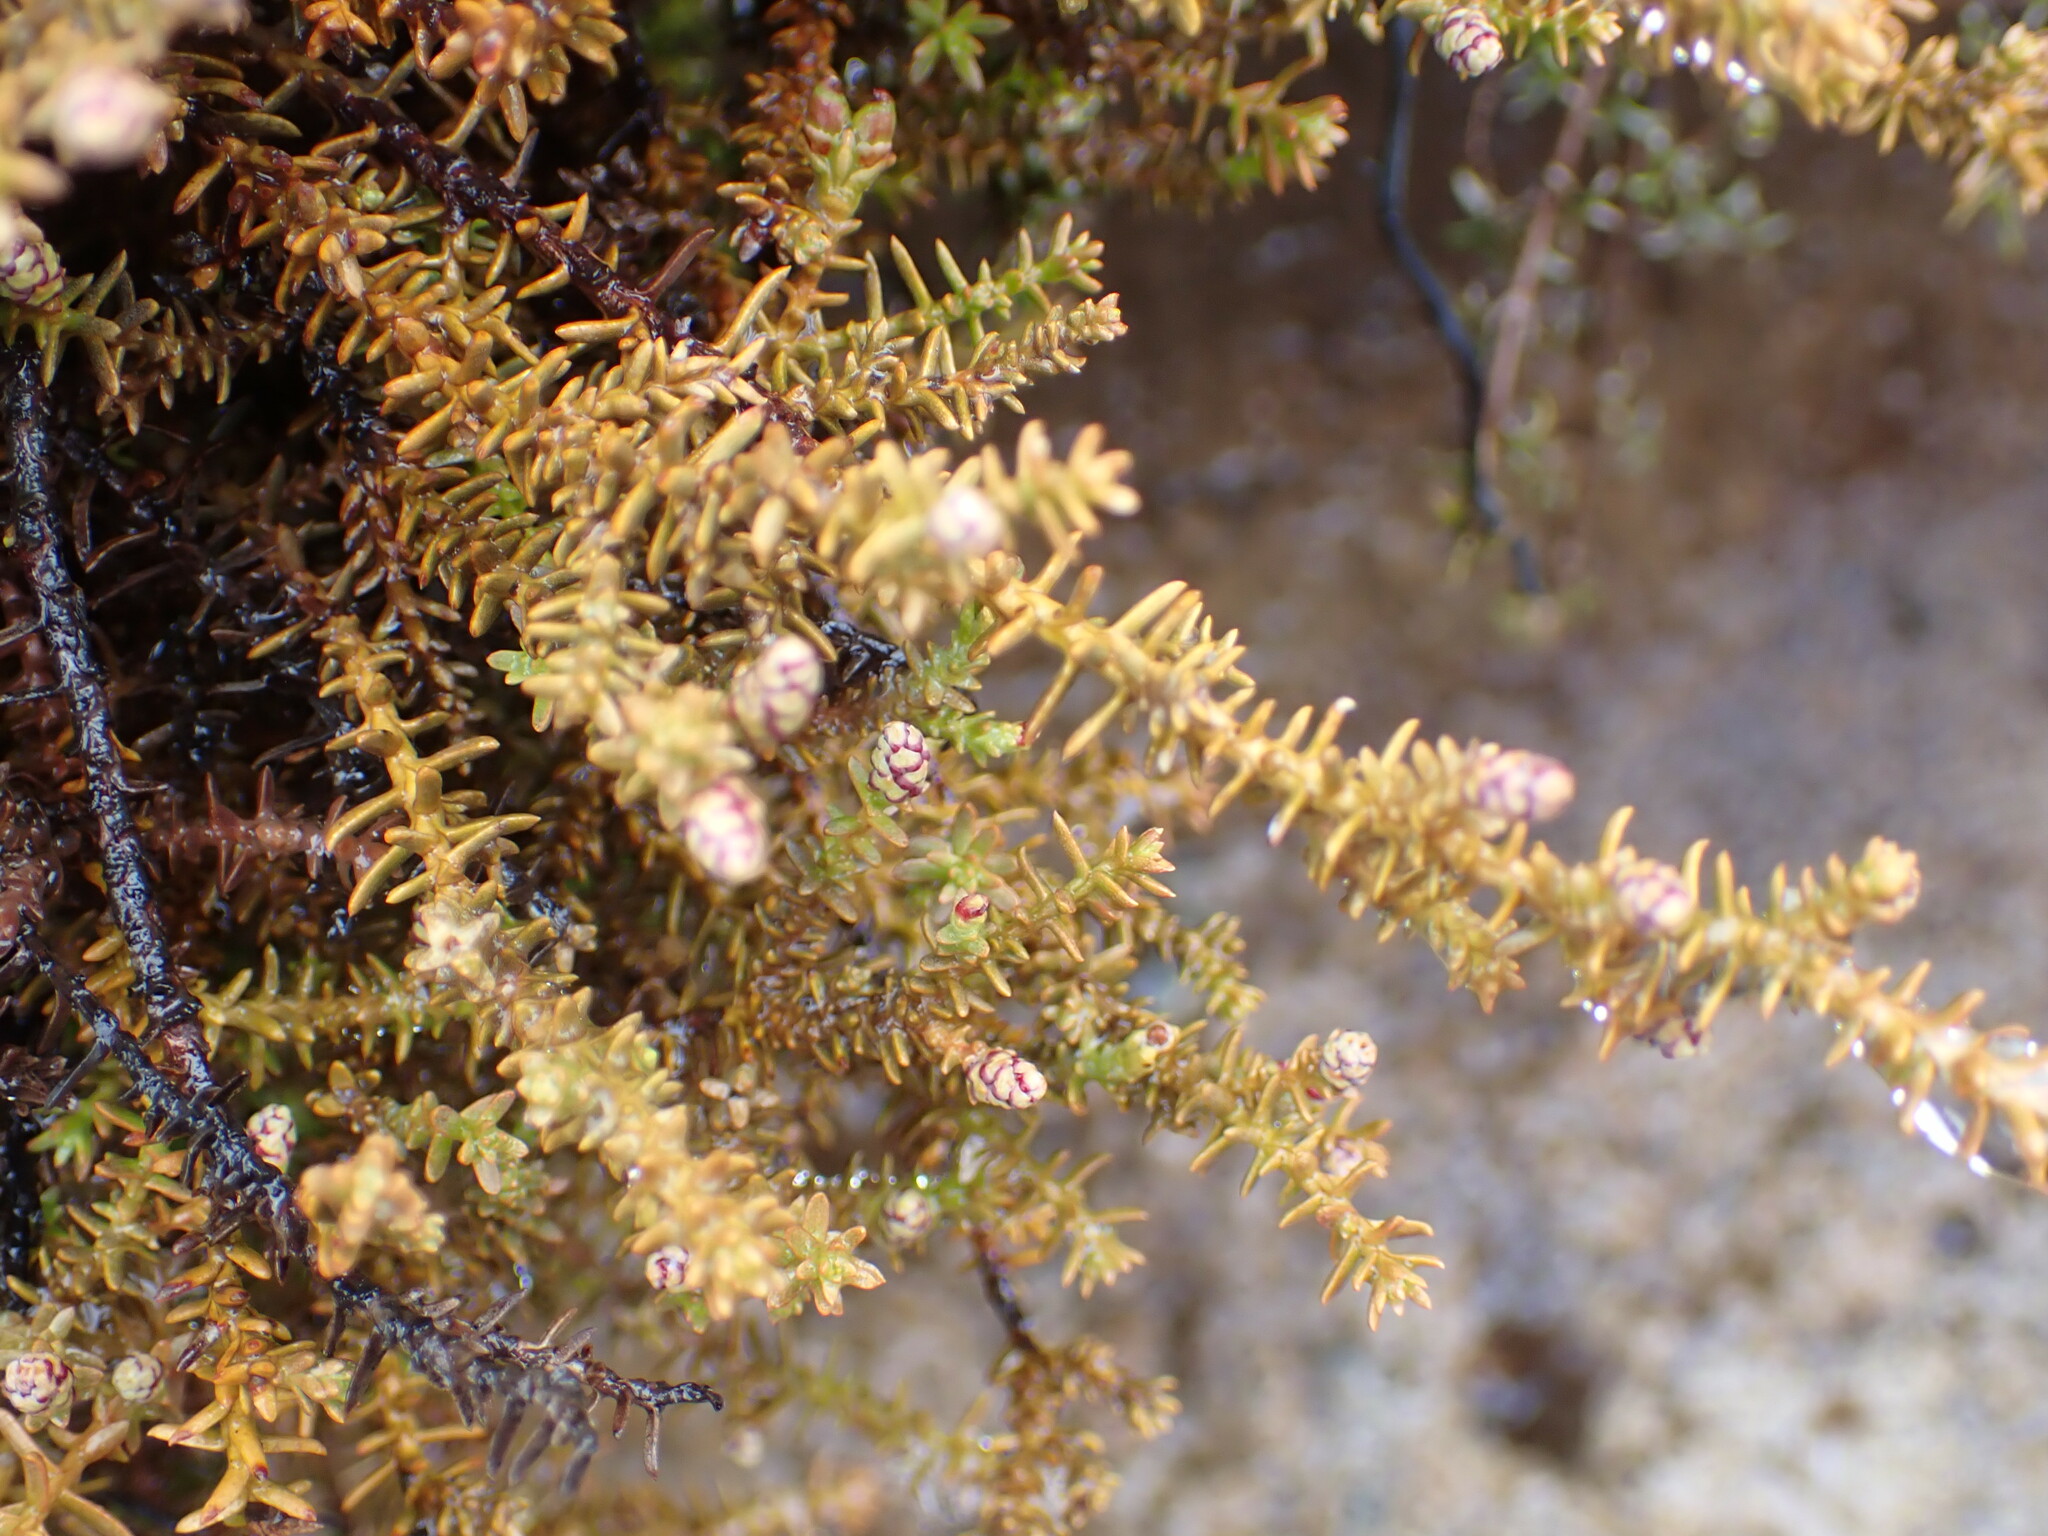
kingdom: Plantae
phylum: Tracheophyta
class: Pinopsida
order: Pinales
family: Podocarpaceae
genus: Lepidothamnus
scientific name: Lepidothamnus laxifolius
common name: Pygmy pine
